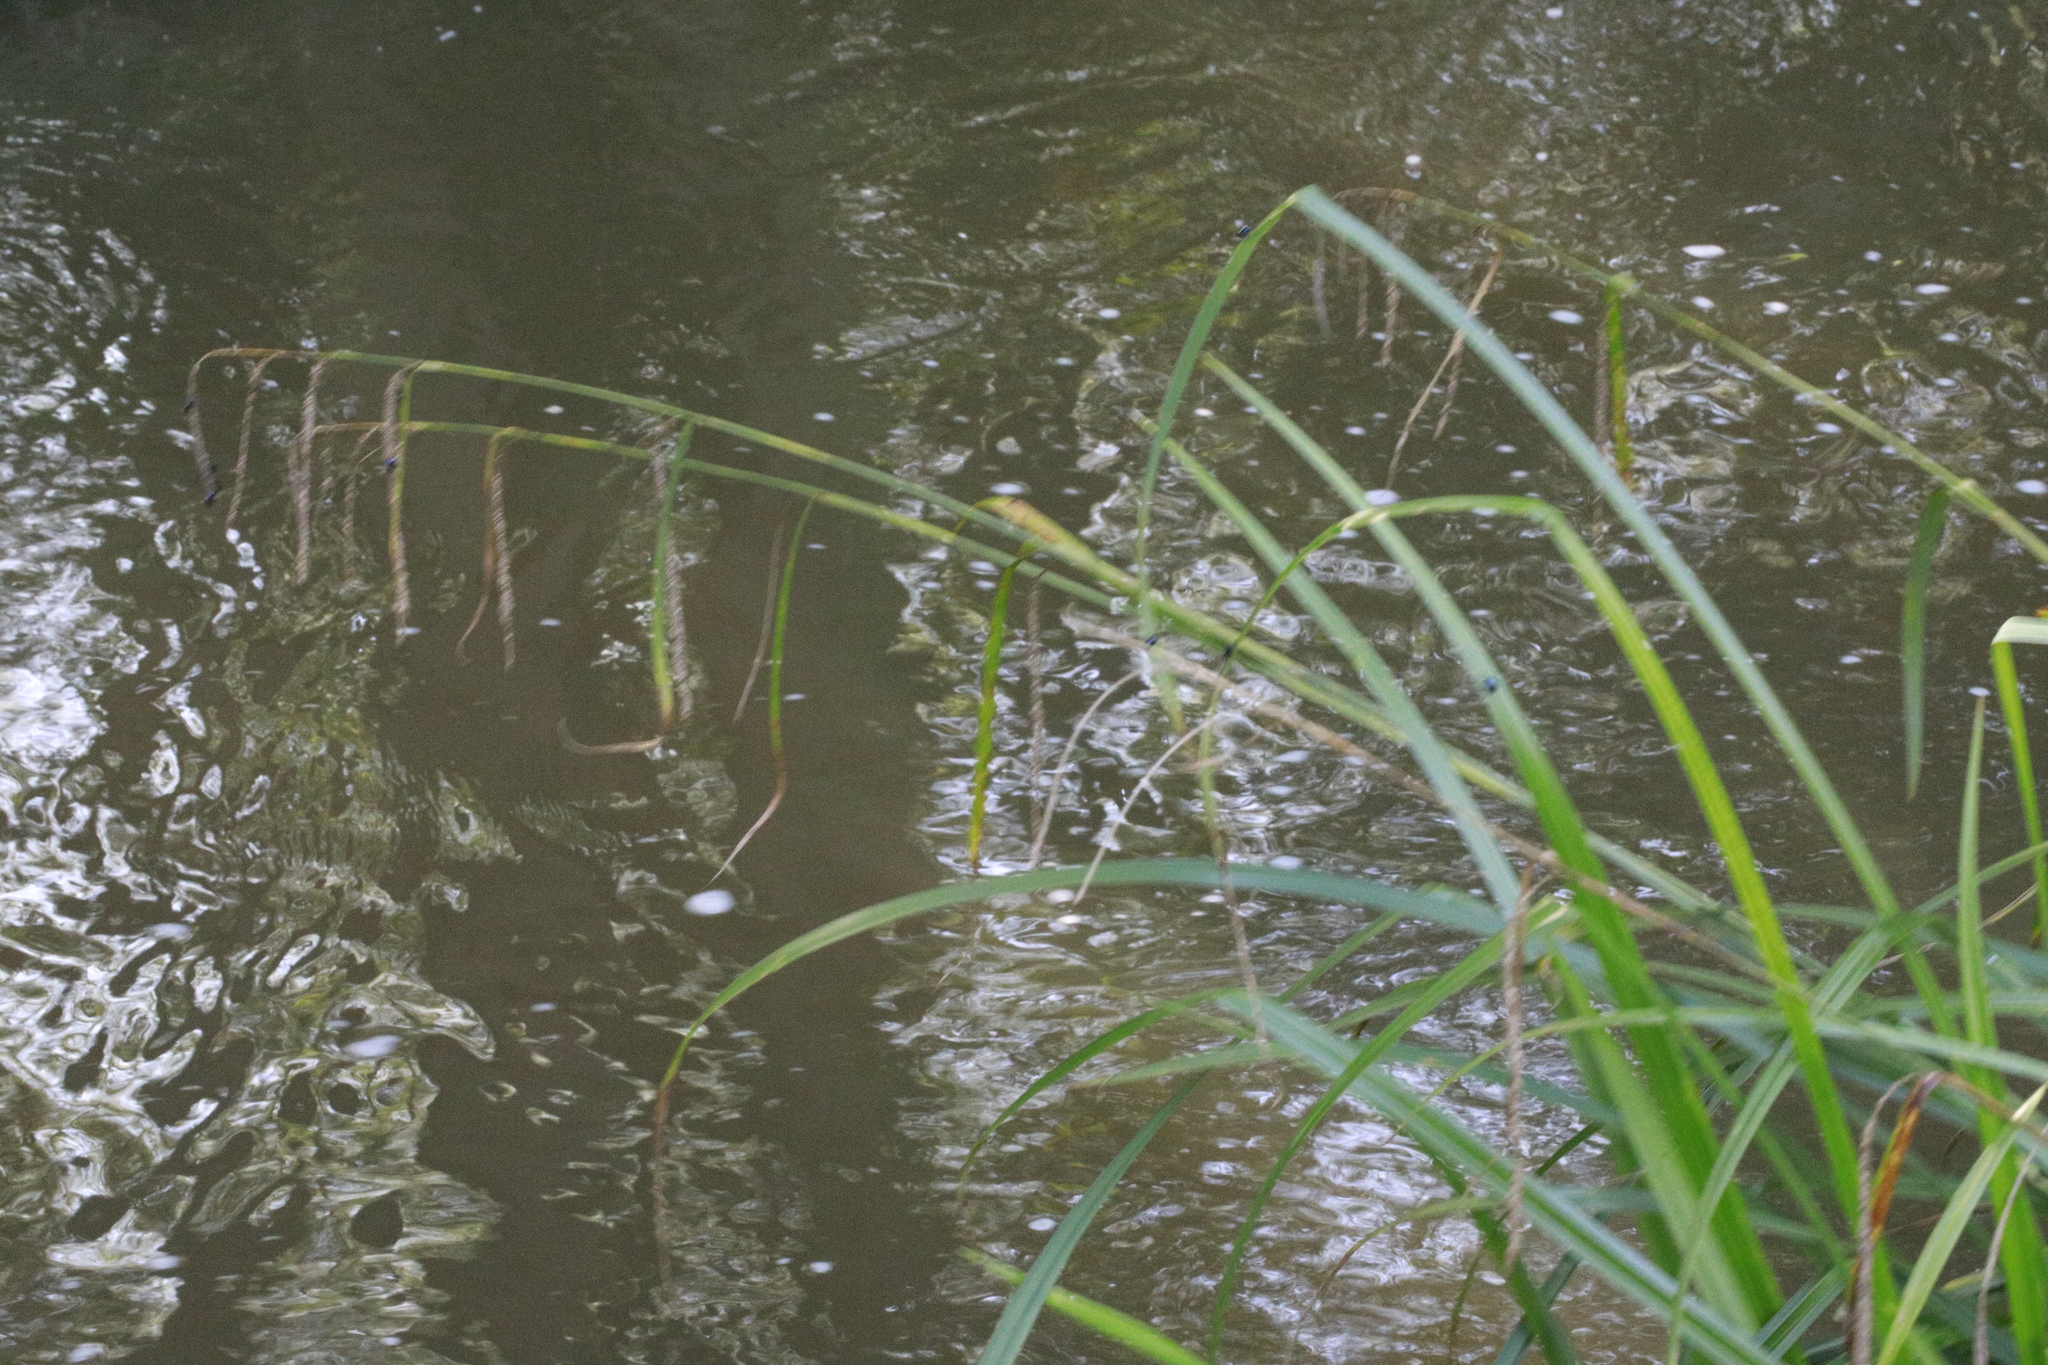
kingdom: Plantae
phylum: Tracheophyta
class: Liliopsida
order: Poales
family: Cyperaceae
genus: Carex
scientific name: Carex pendula
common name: Pendulous sedge
